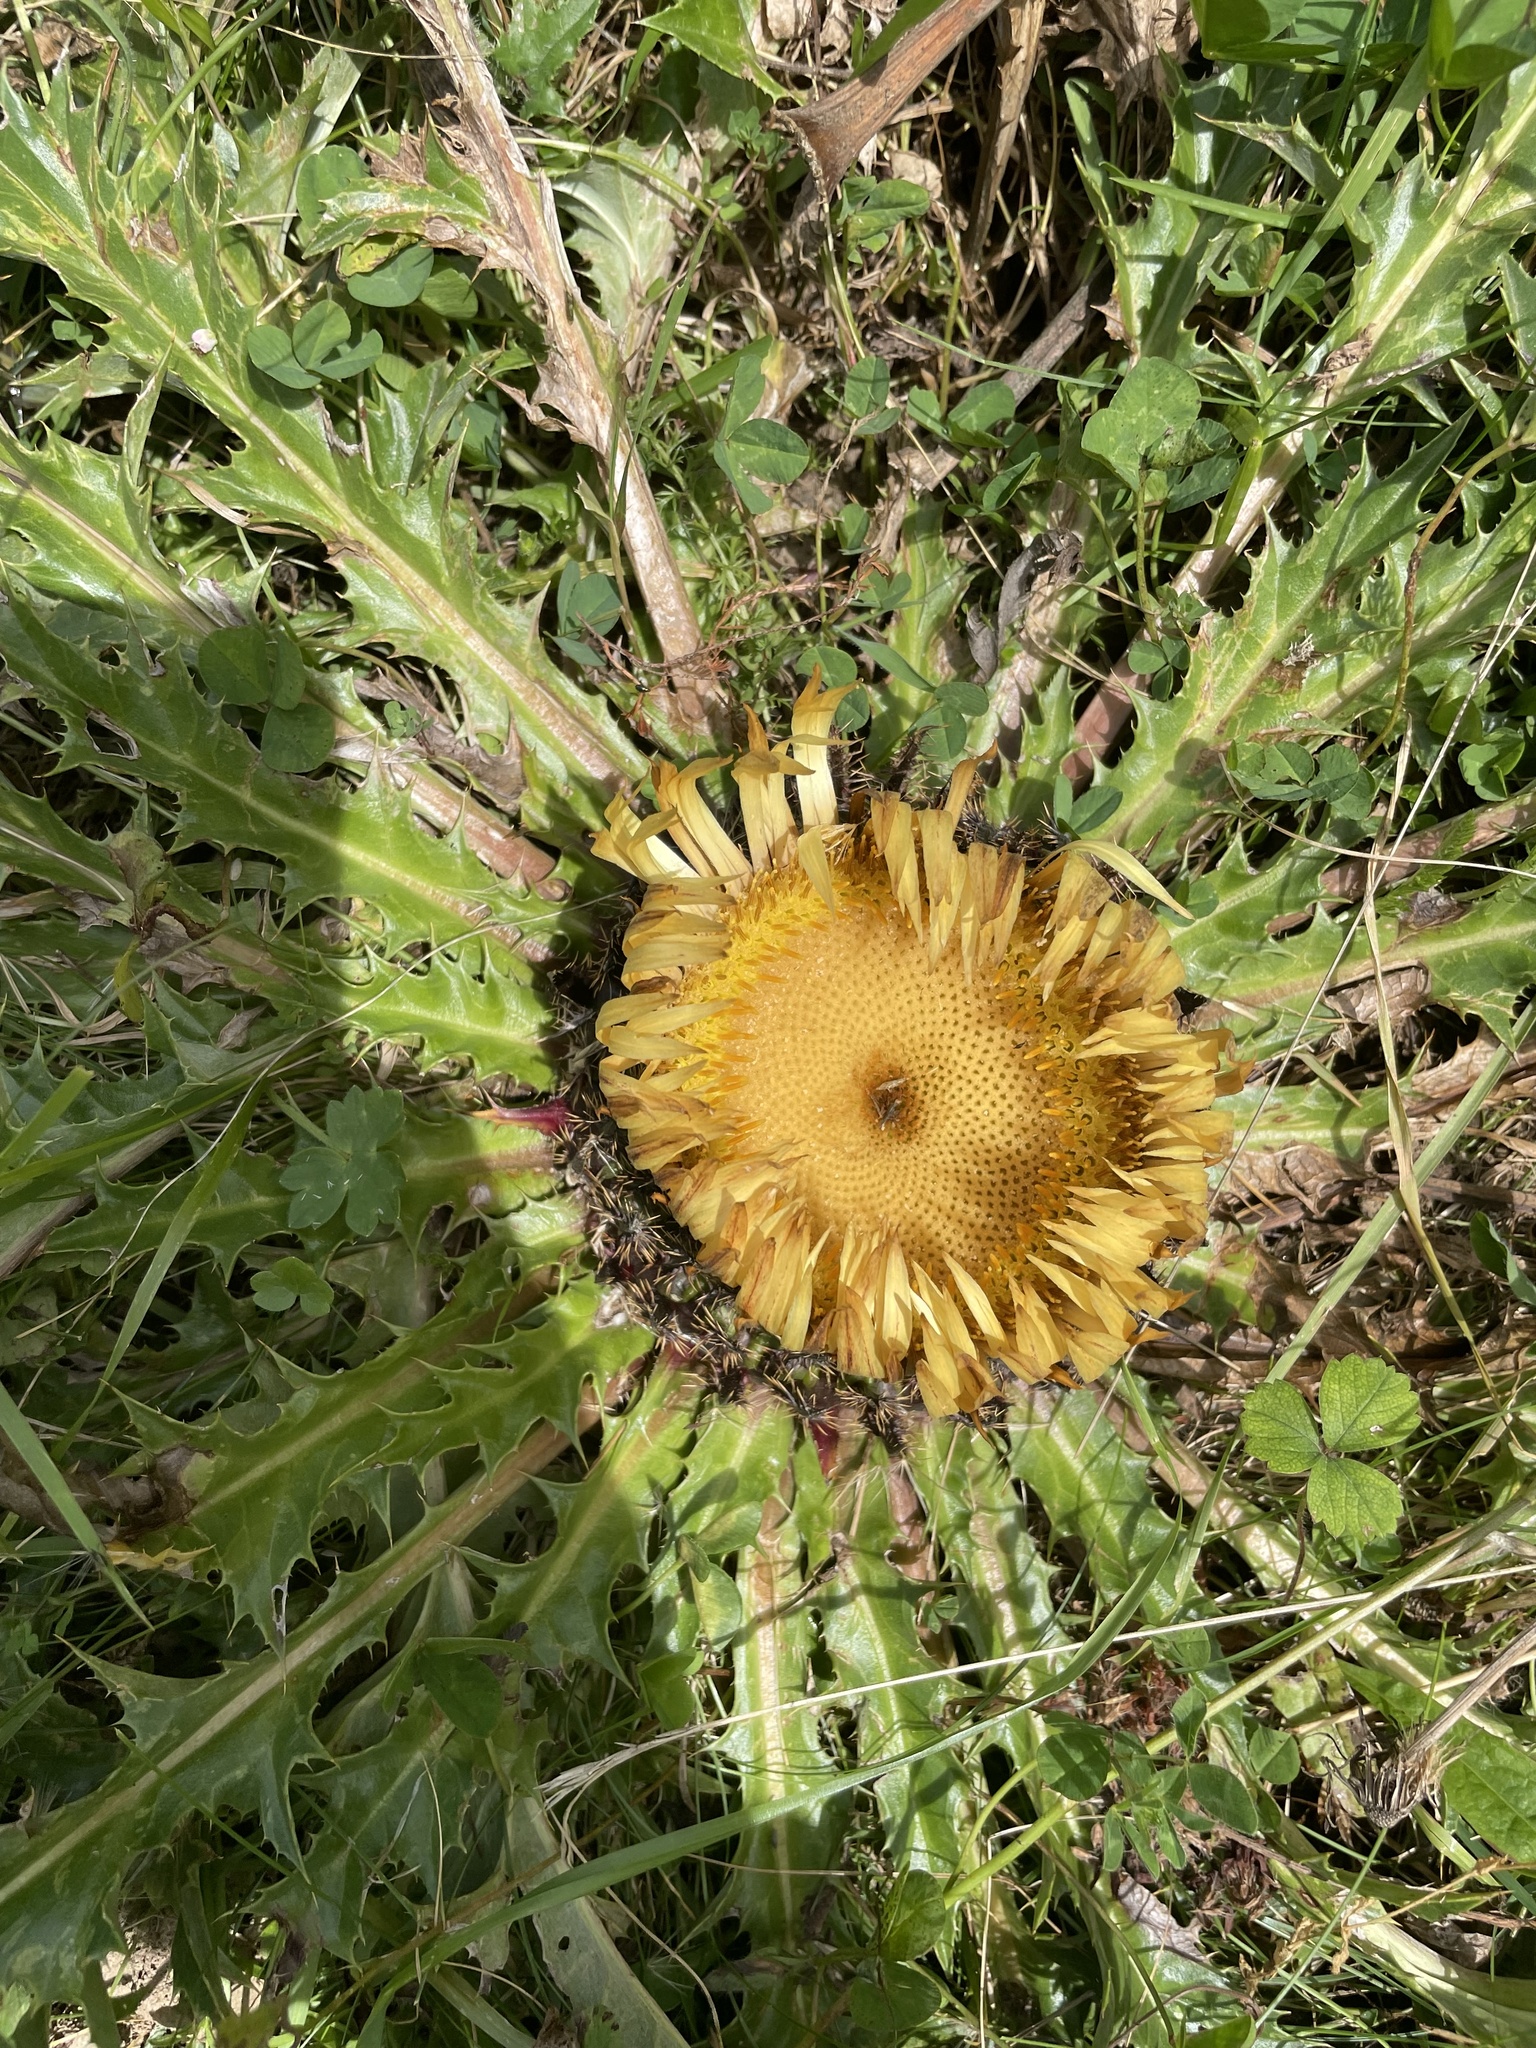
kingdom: Plantae
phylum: Tracheophyta
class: Magnoliopsida
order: Asterales
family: Asteraceae
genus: Carlina
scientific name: Carlina acanthifolia
